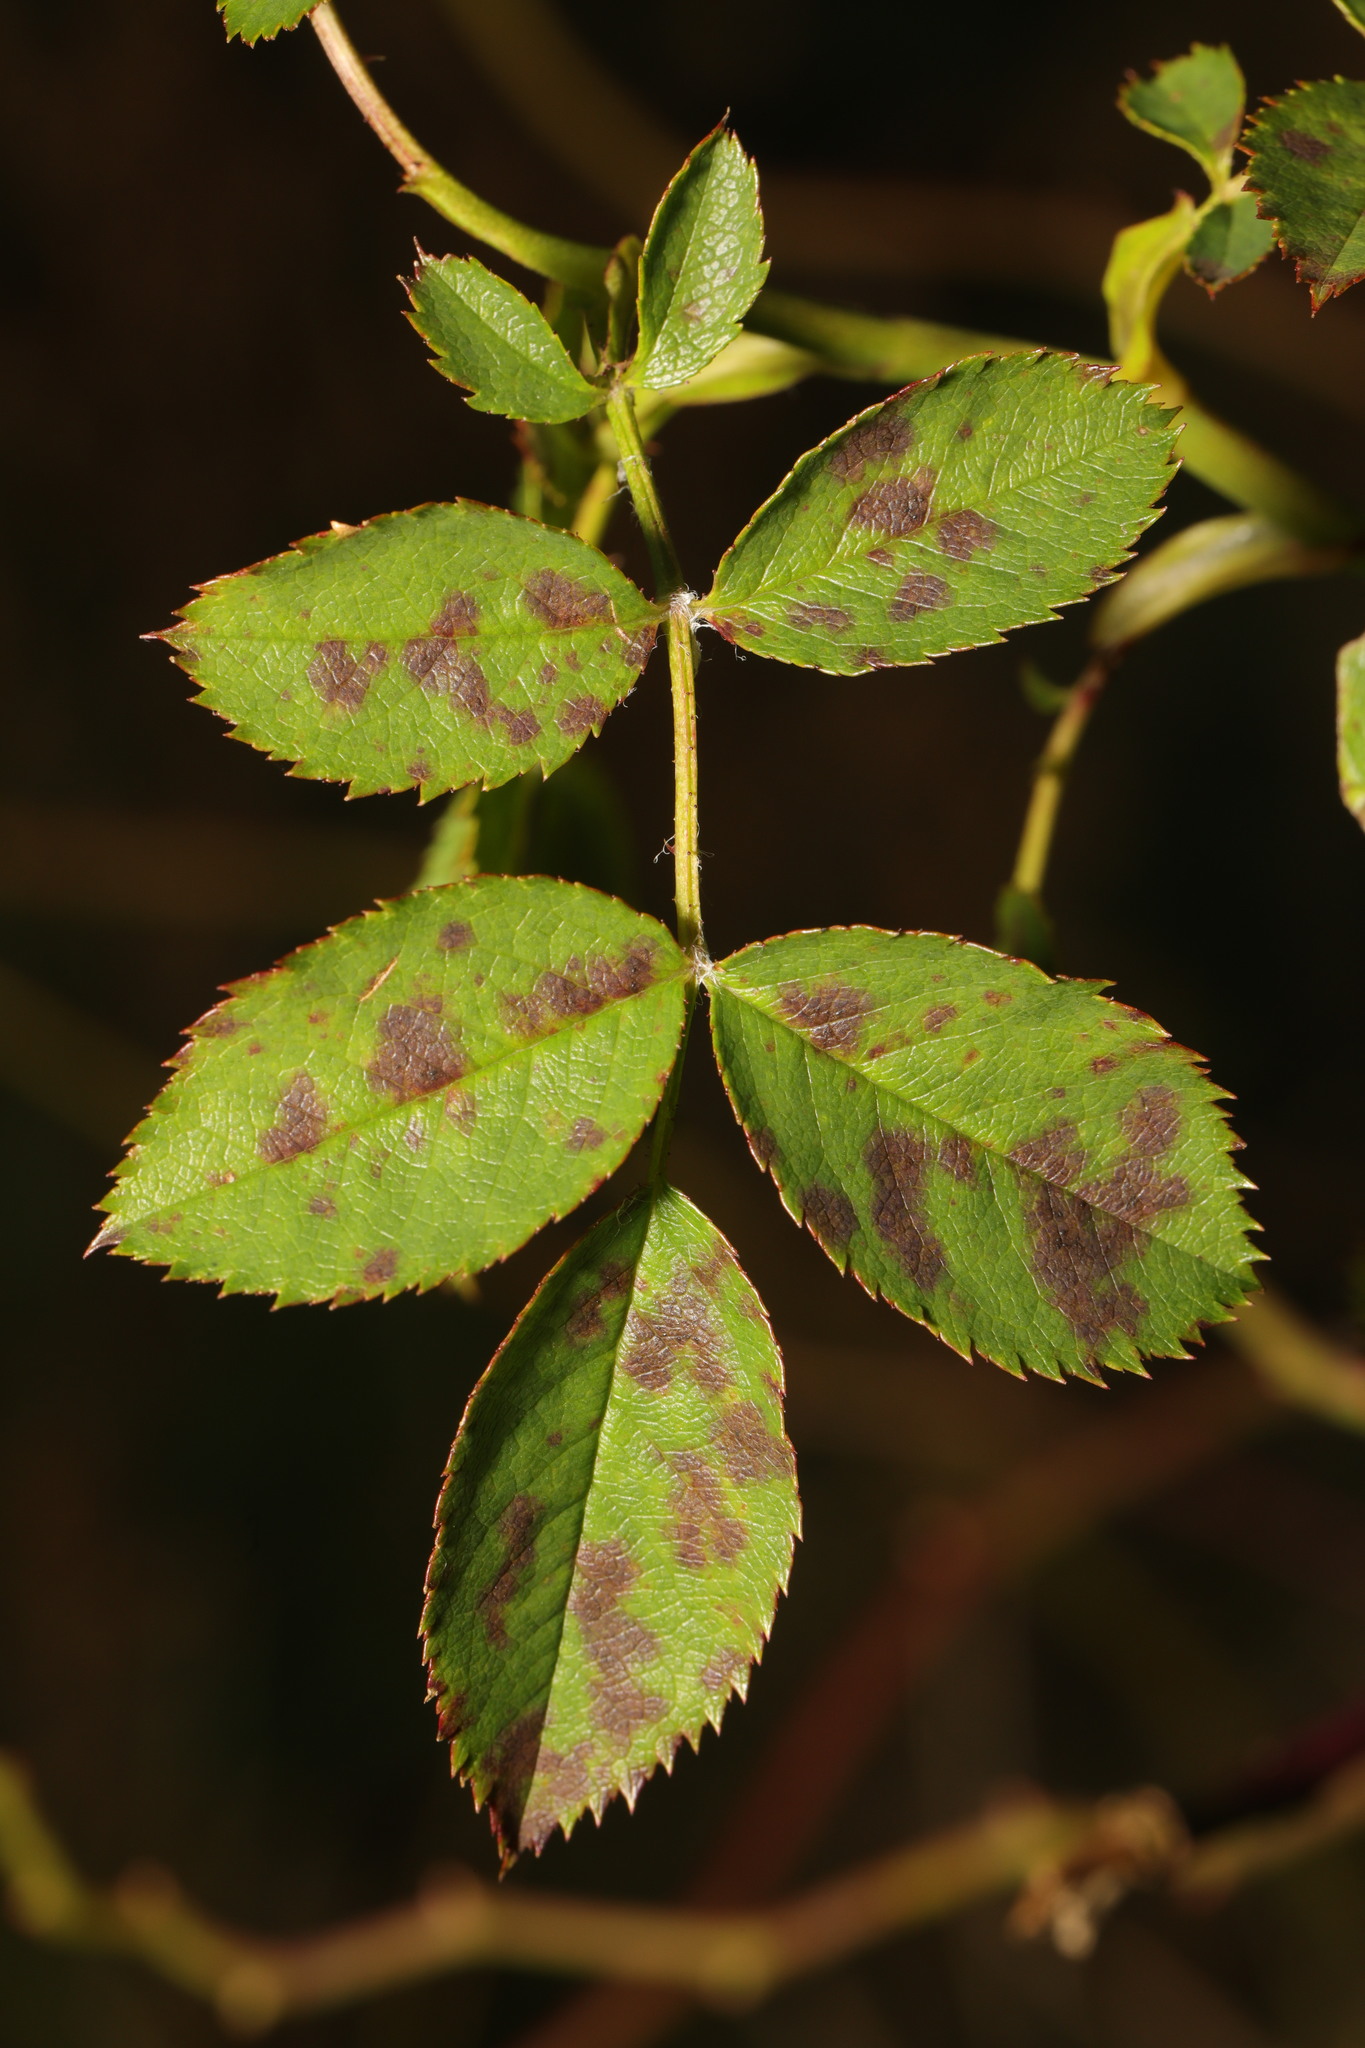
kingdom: Fungi
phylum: Ascomycota
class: Leotiomycetes
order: Helotiales
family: Drepanopezizaceae
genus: Diplocarpon
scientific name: Diplocarpon rosae
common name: Rose black-spot
